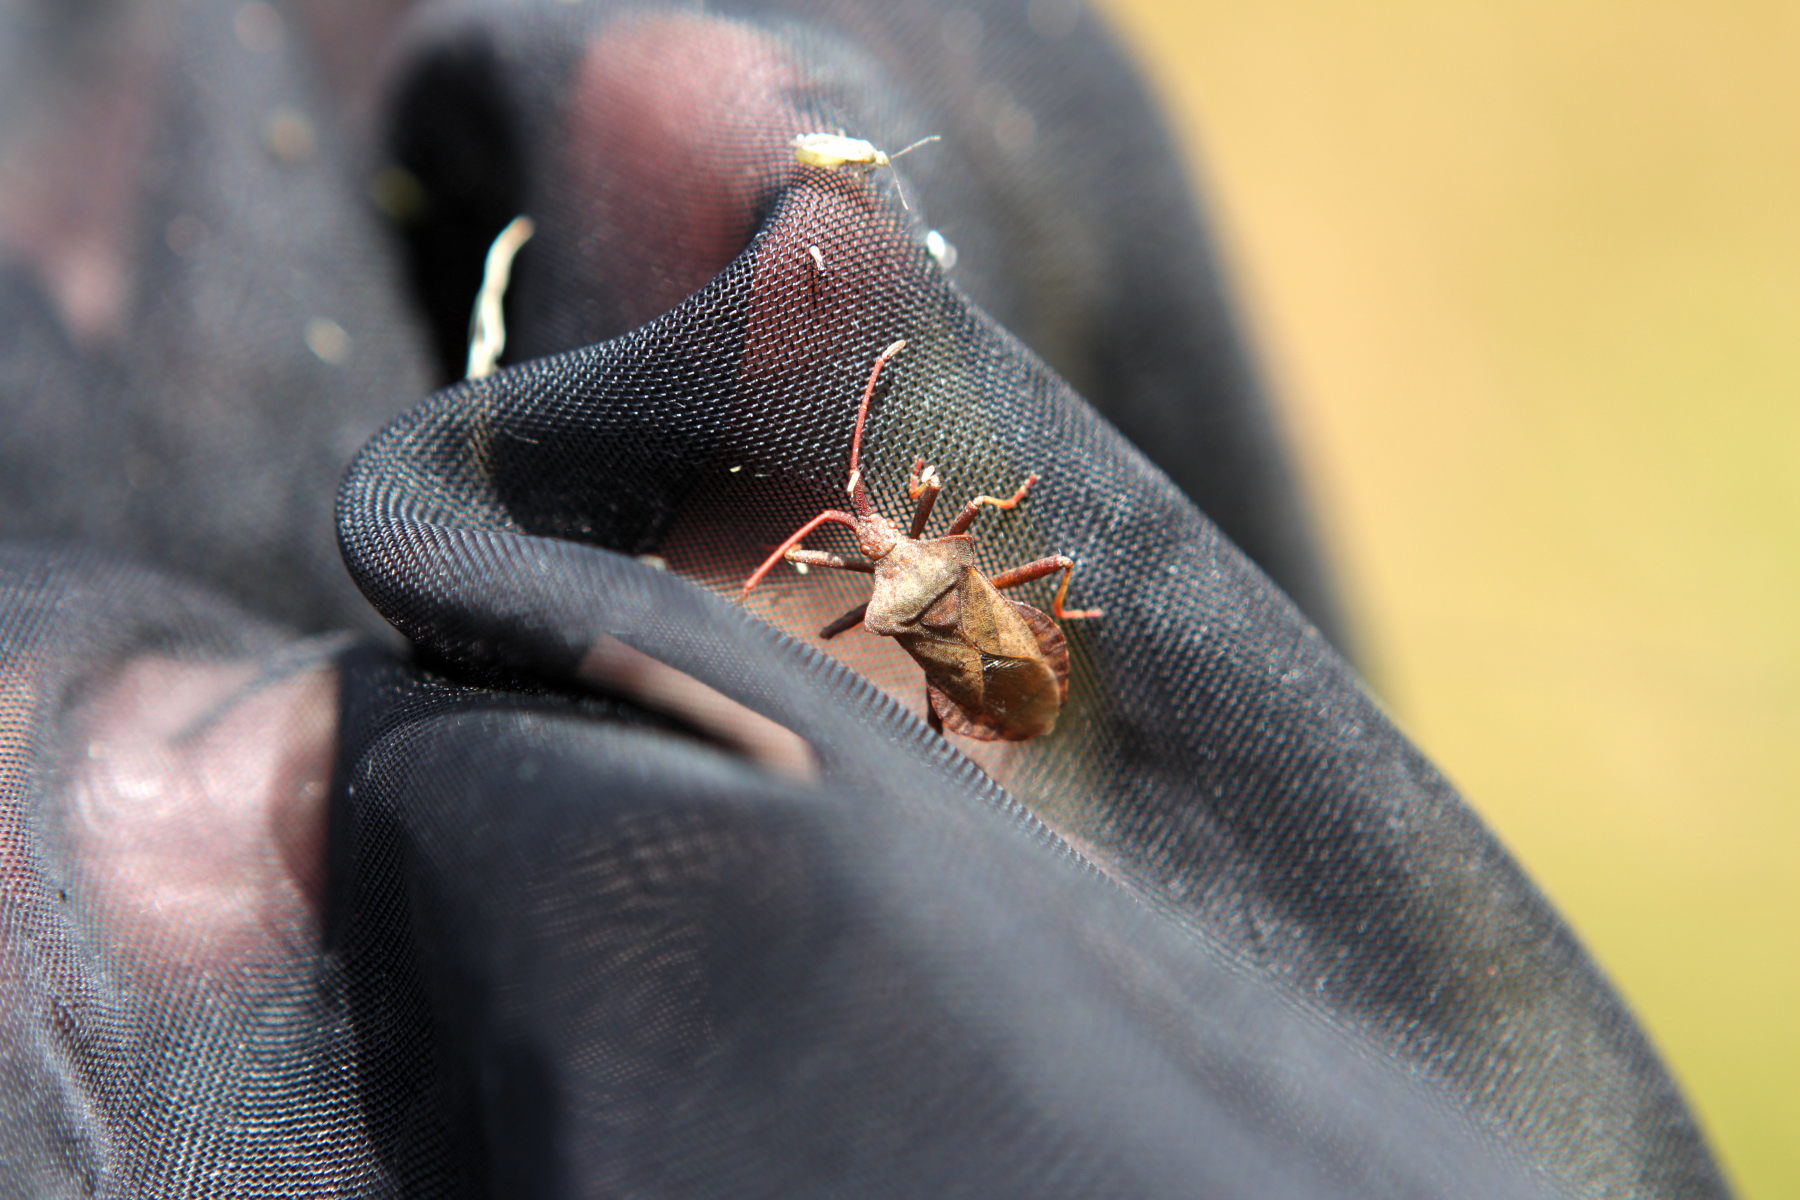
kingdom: Animalia
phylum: Arthropoda
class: Insecta
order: Hemiptera
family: Coreidae
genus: Coreus
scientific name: Coreus marginatus
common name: Dock bug
